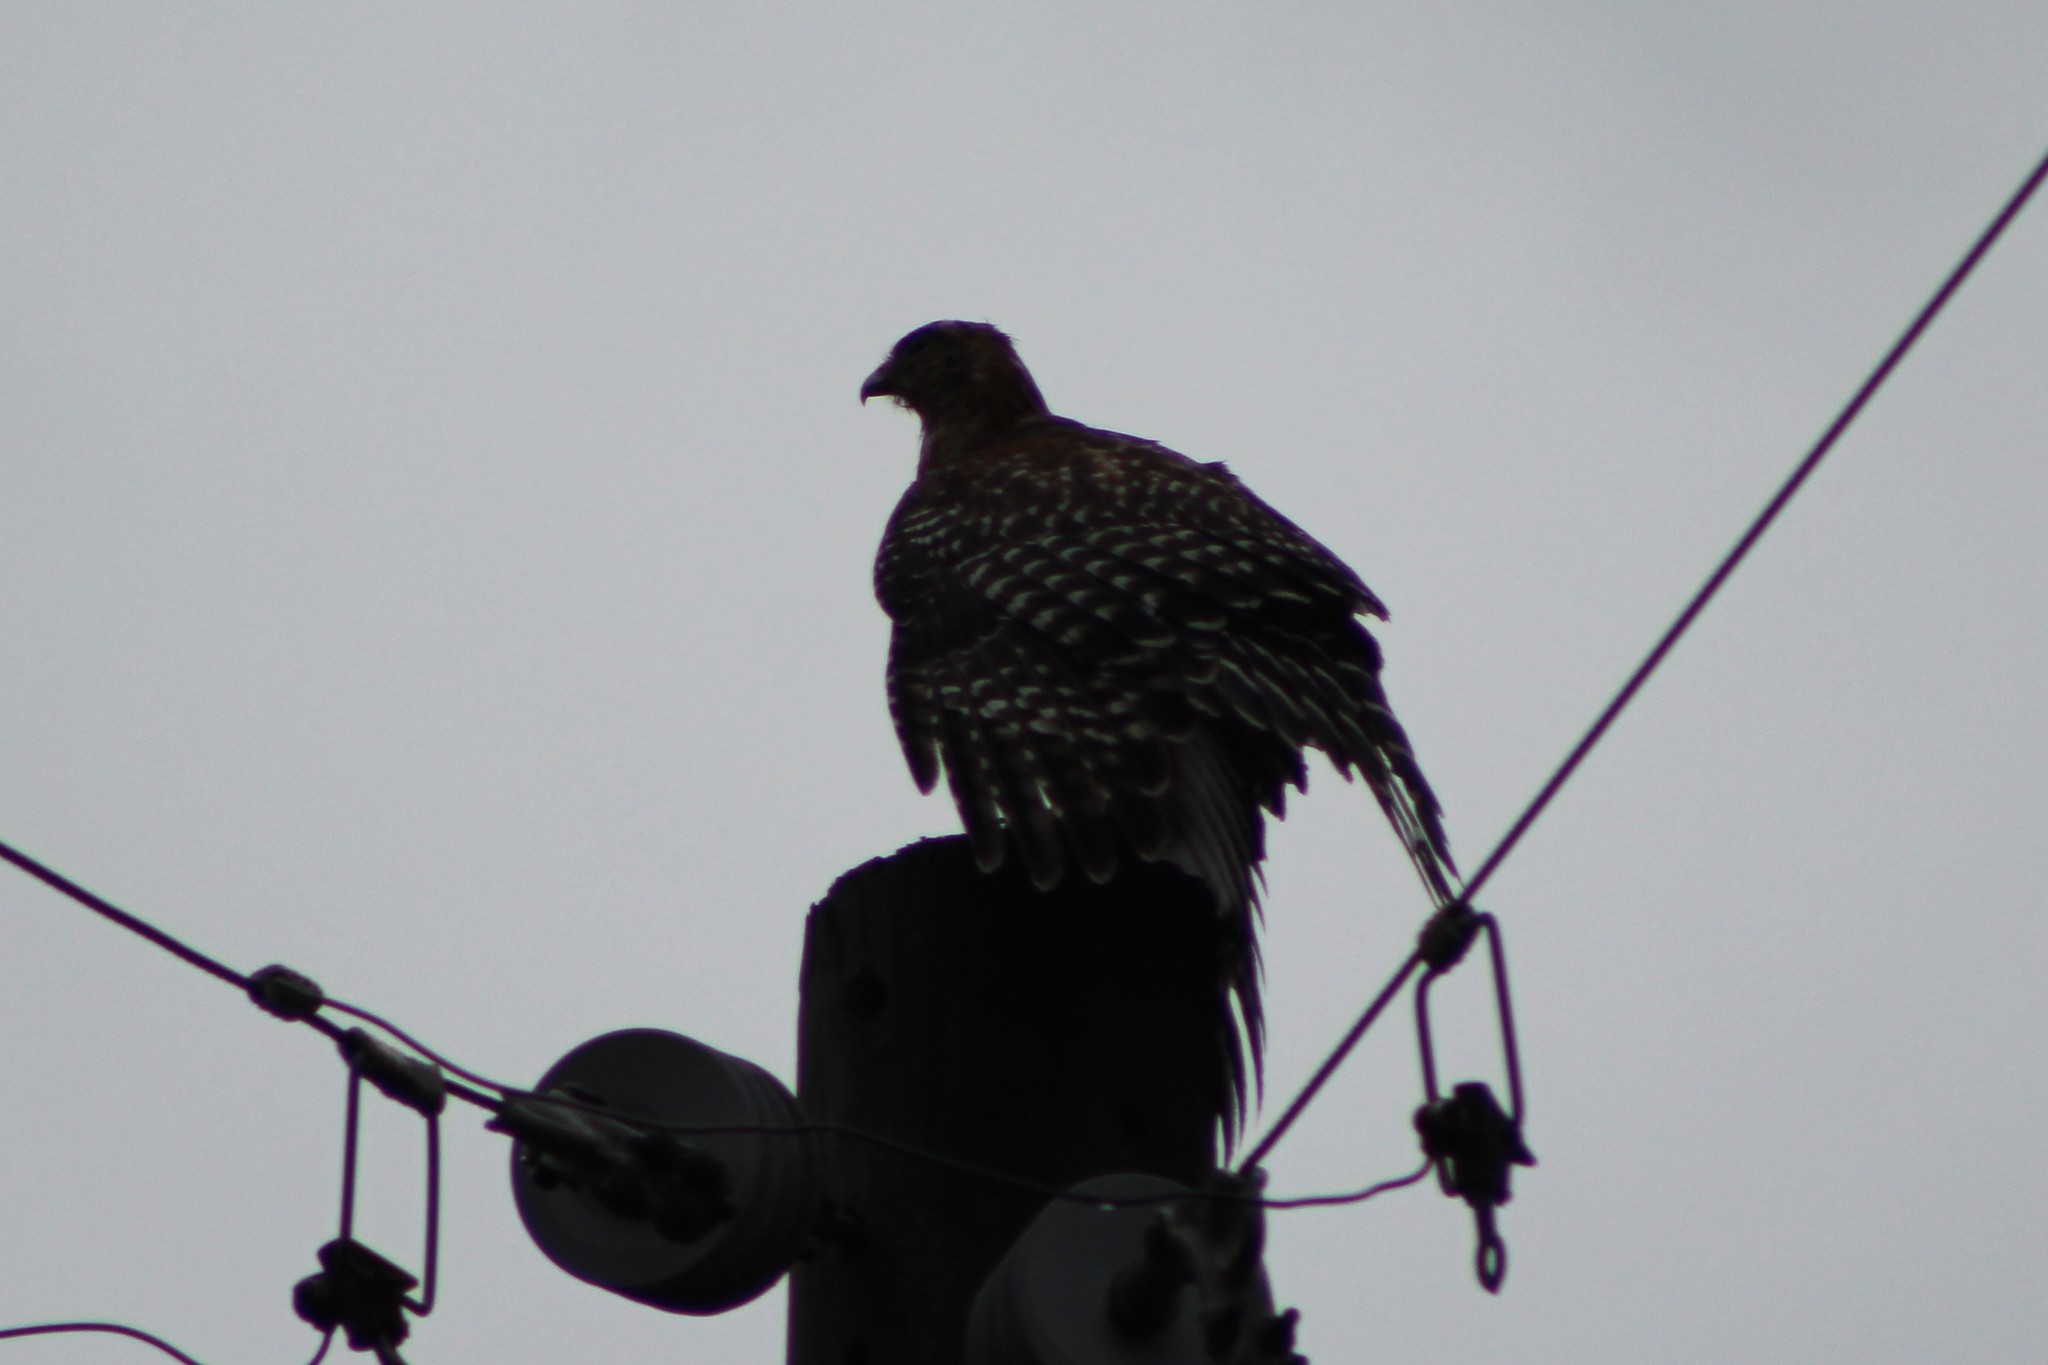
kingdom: Animalia
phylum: Chordata
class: Aves
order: Accipitriformes
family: Accipitridae
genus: Buteo
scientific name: Buteo lineatus
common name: Red-shouldered hawk
